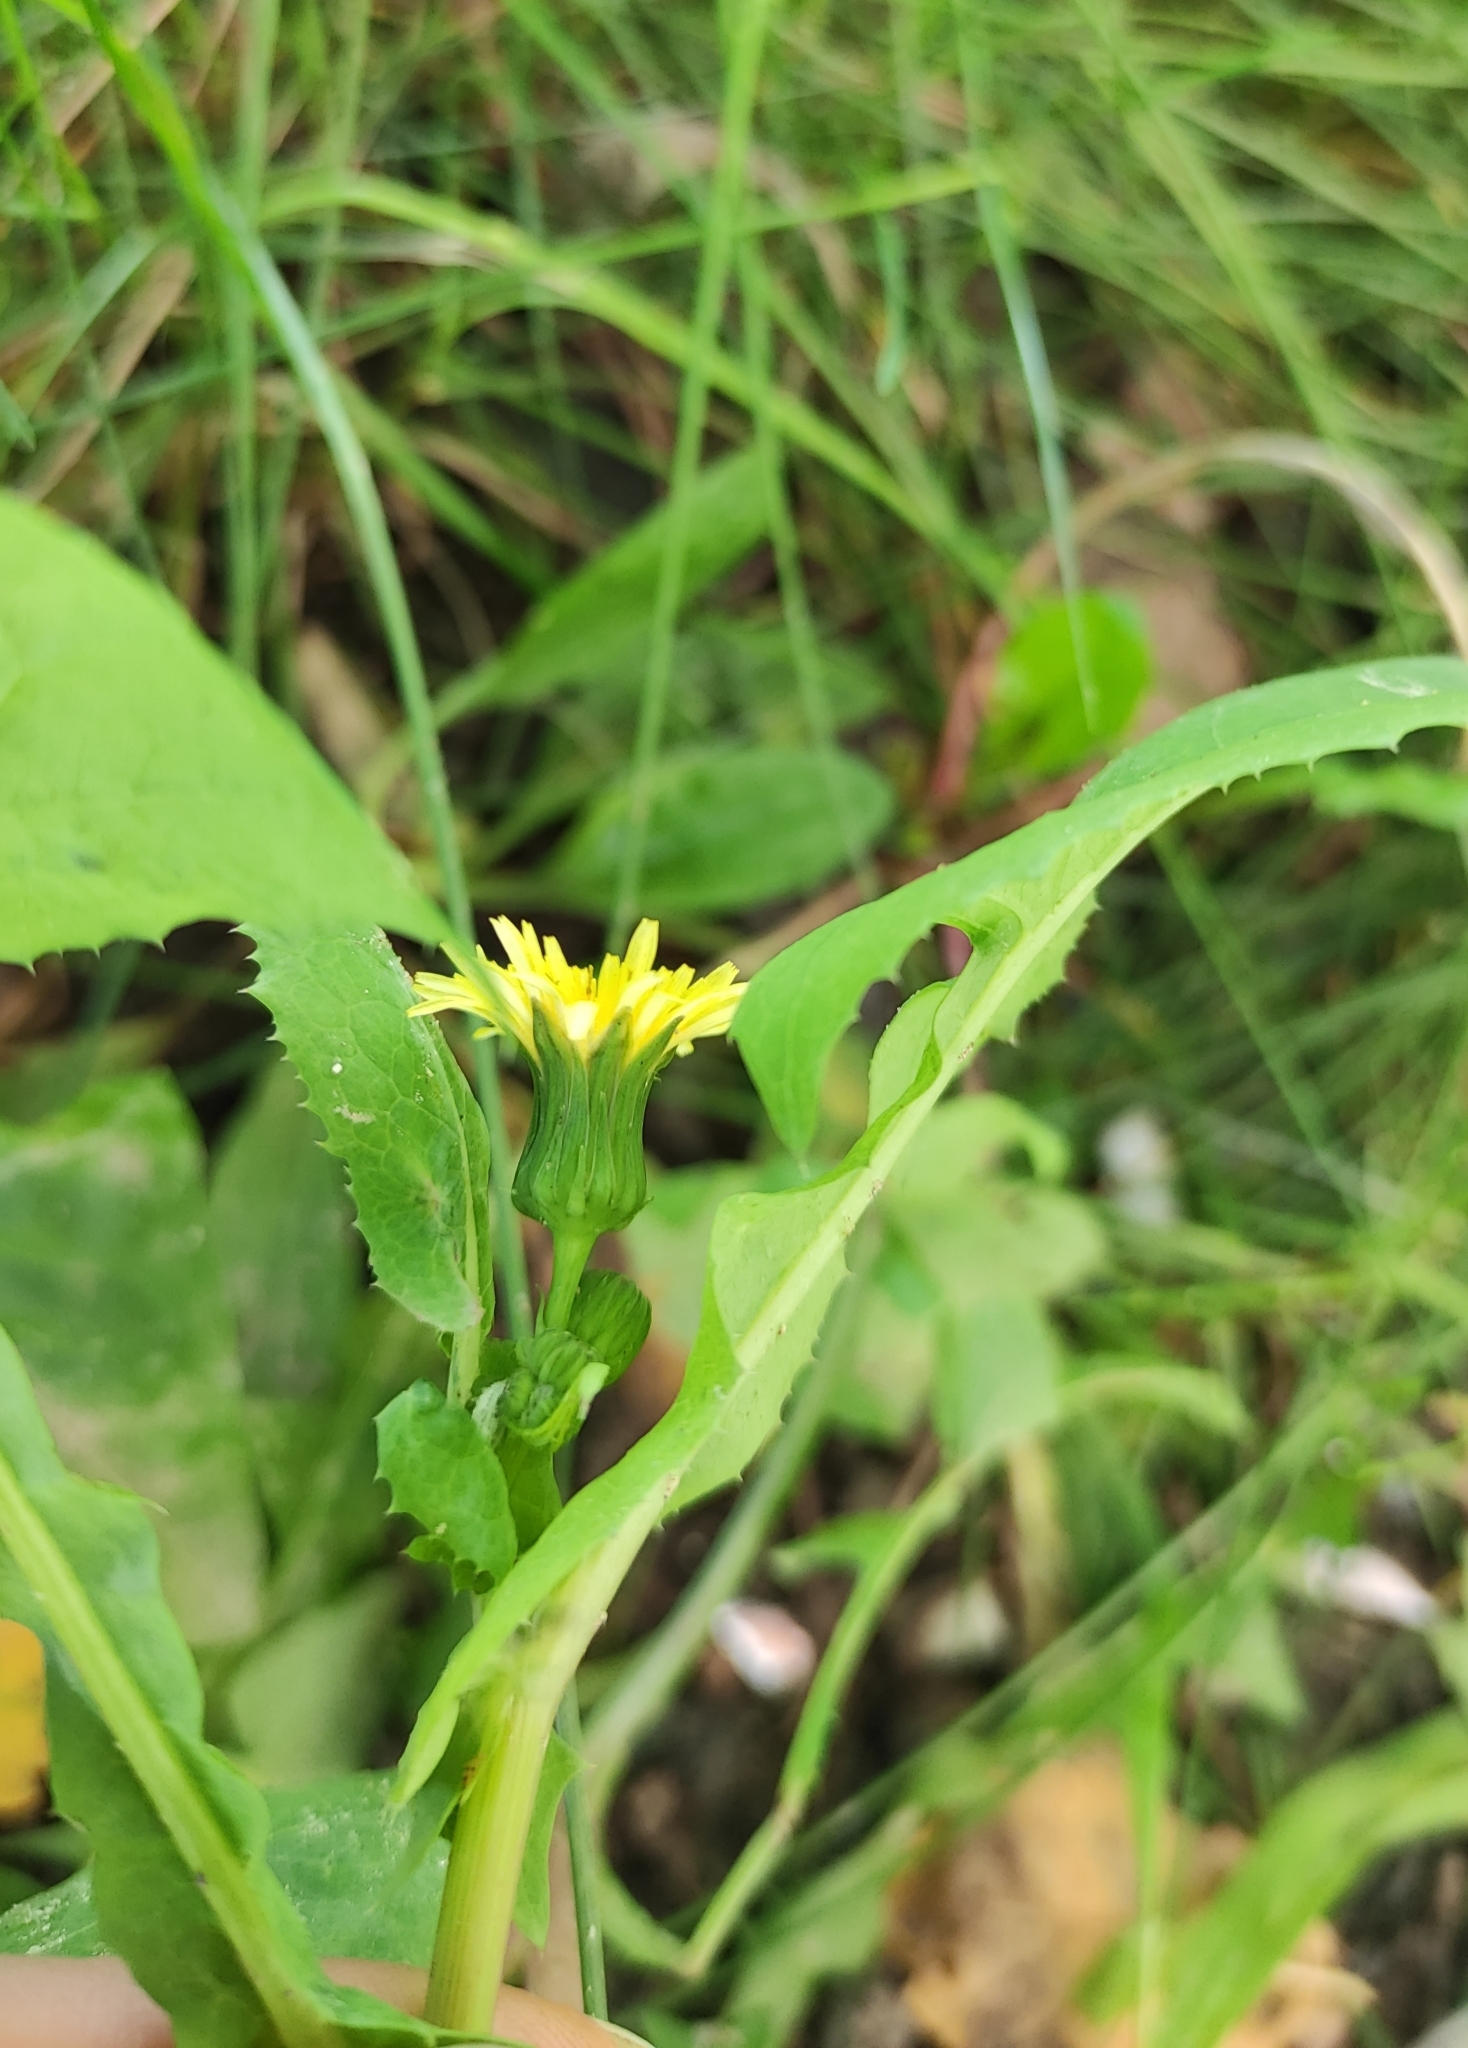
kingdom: Plantae
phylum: Tracheophyta
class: Magnoliopsida
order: Asterales
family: Asteraceae
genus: Sonchus
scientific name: Sonchus oleraceus
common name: Common sowthistle
